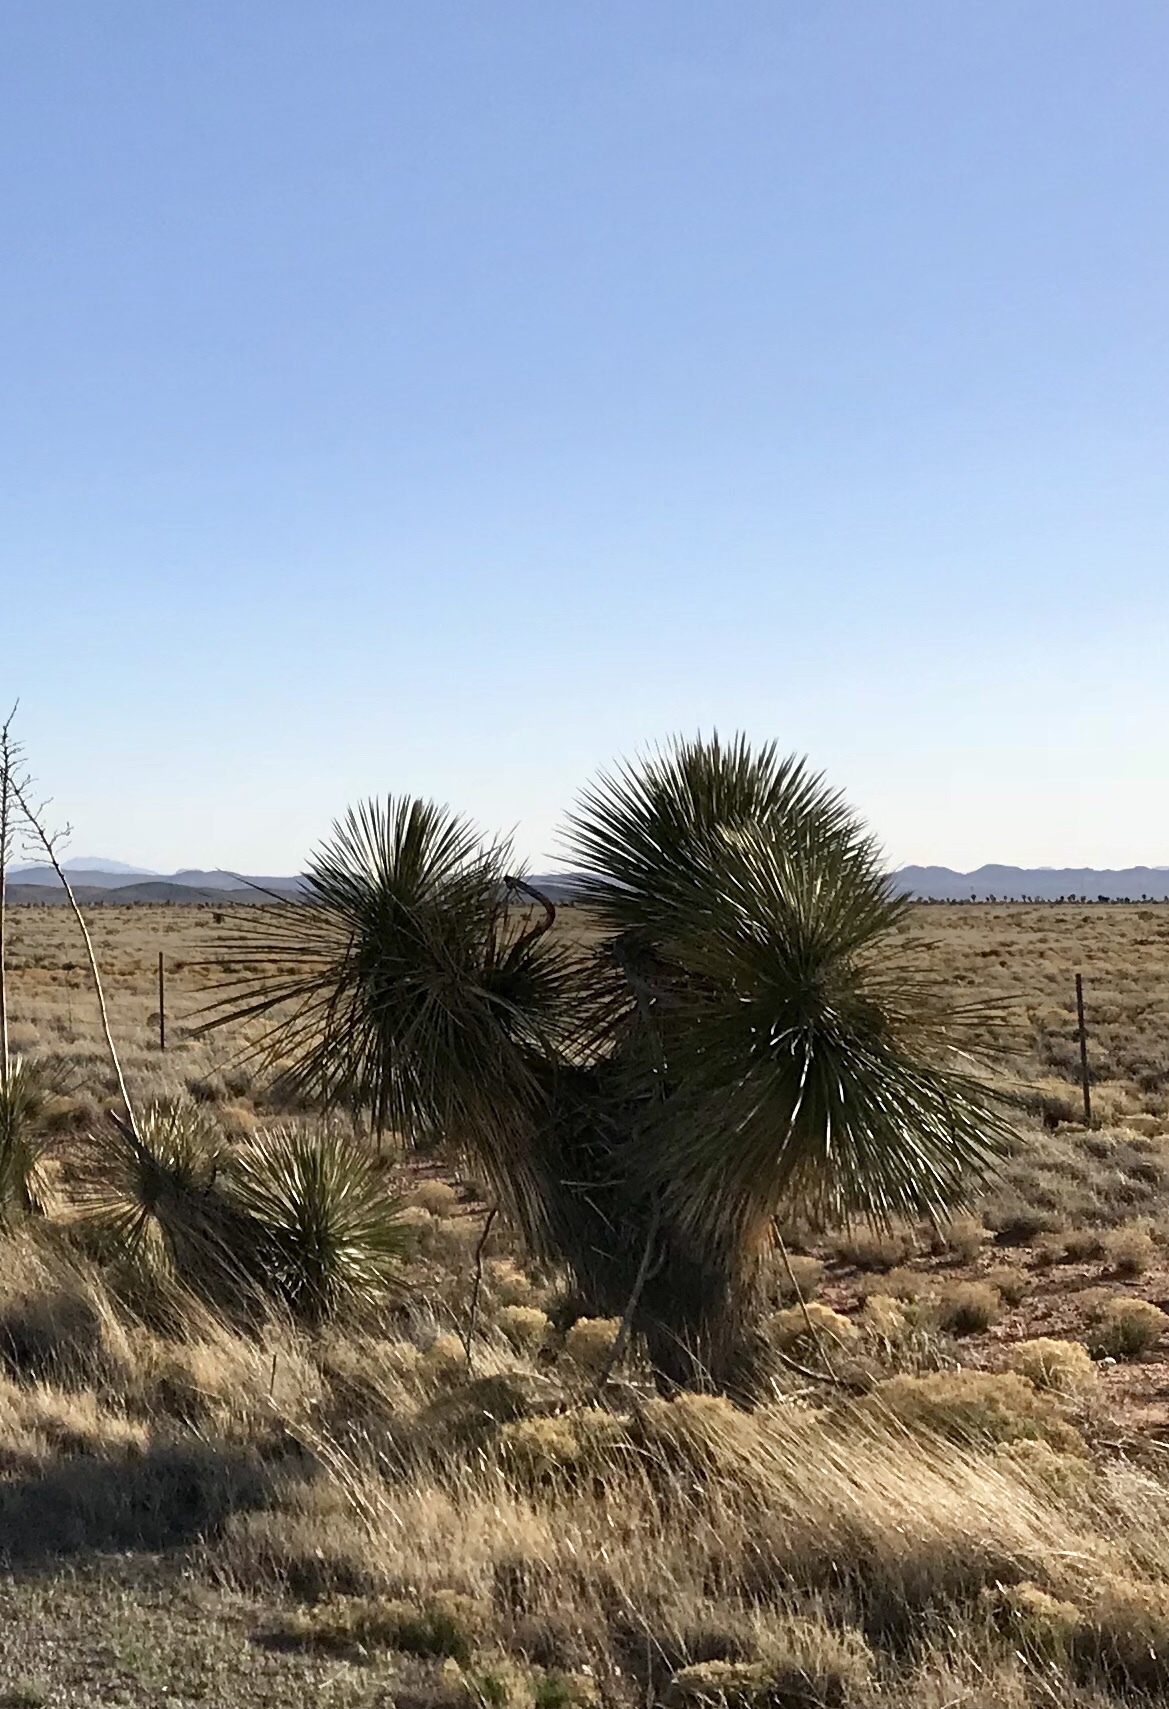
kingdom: Plantae
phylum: Tracheophyta
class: Liliopsida
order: Asparagales
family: Asparagaceae
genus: Yucca
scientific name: Yucca elata
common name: Palmella
